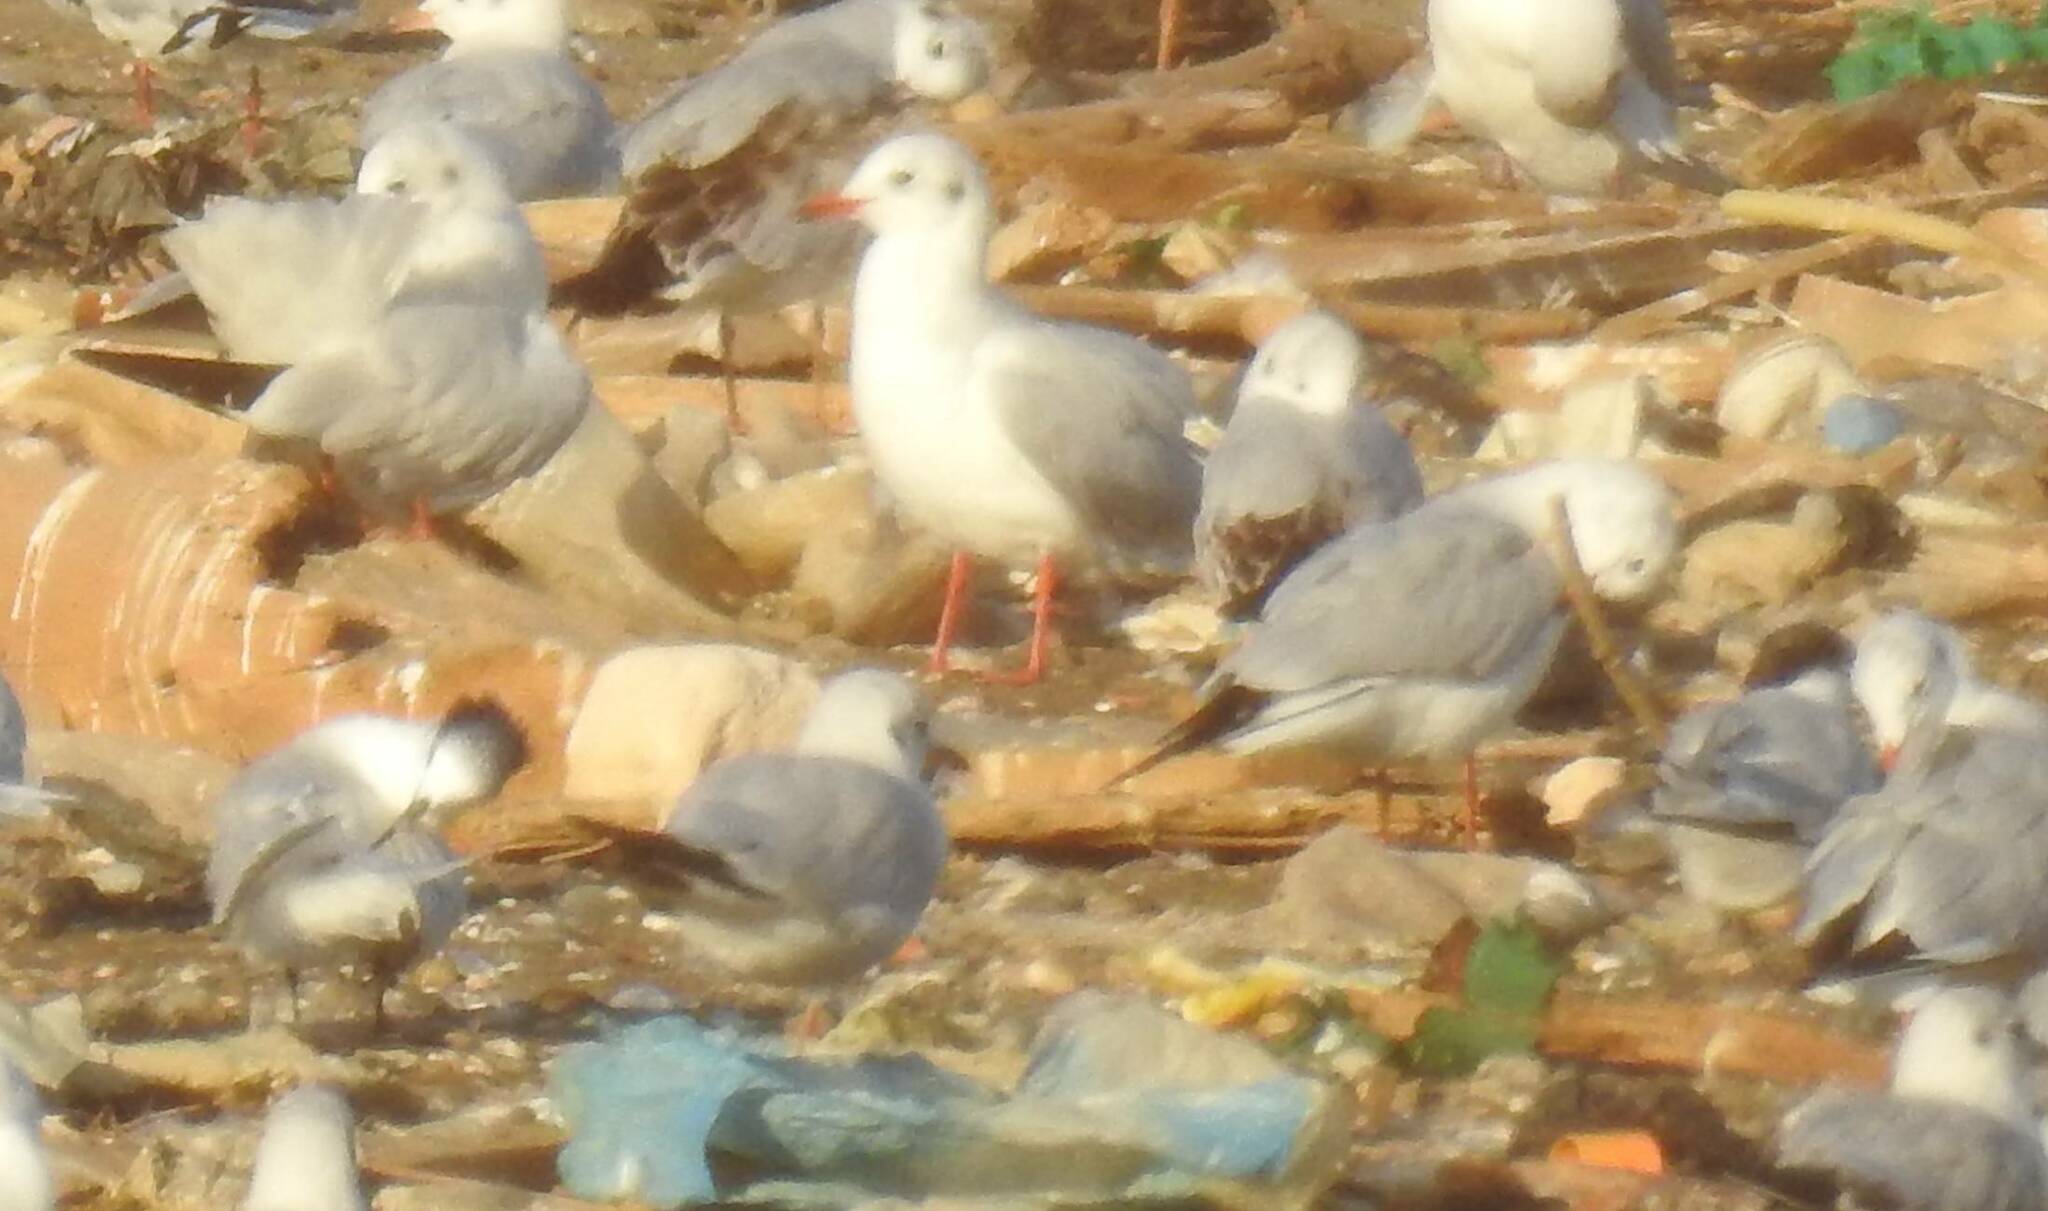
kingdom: Animalia
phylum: Chordata
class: Aves
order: Charadriiformes
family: Laridae
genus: Chroicocephalus
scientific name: Chroicocephalus ridibundus
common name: Black-headed gull
